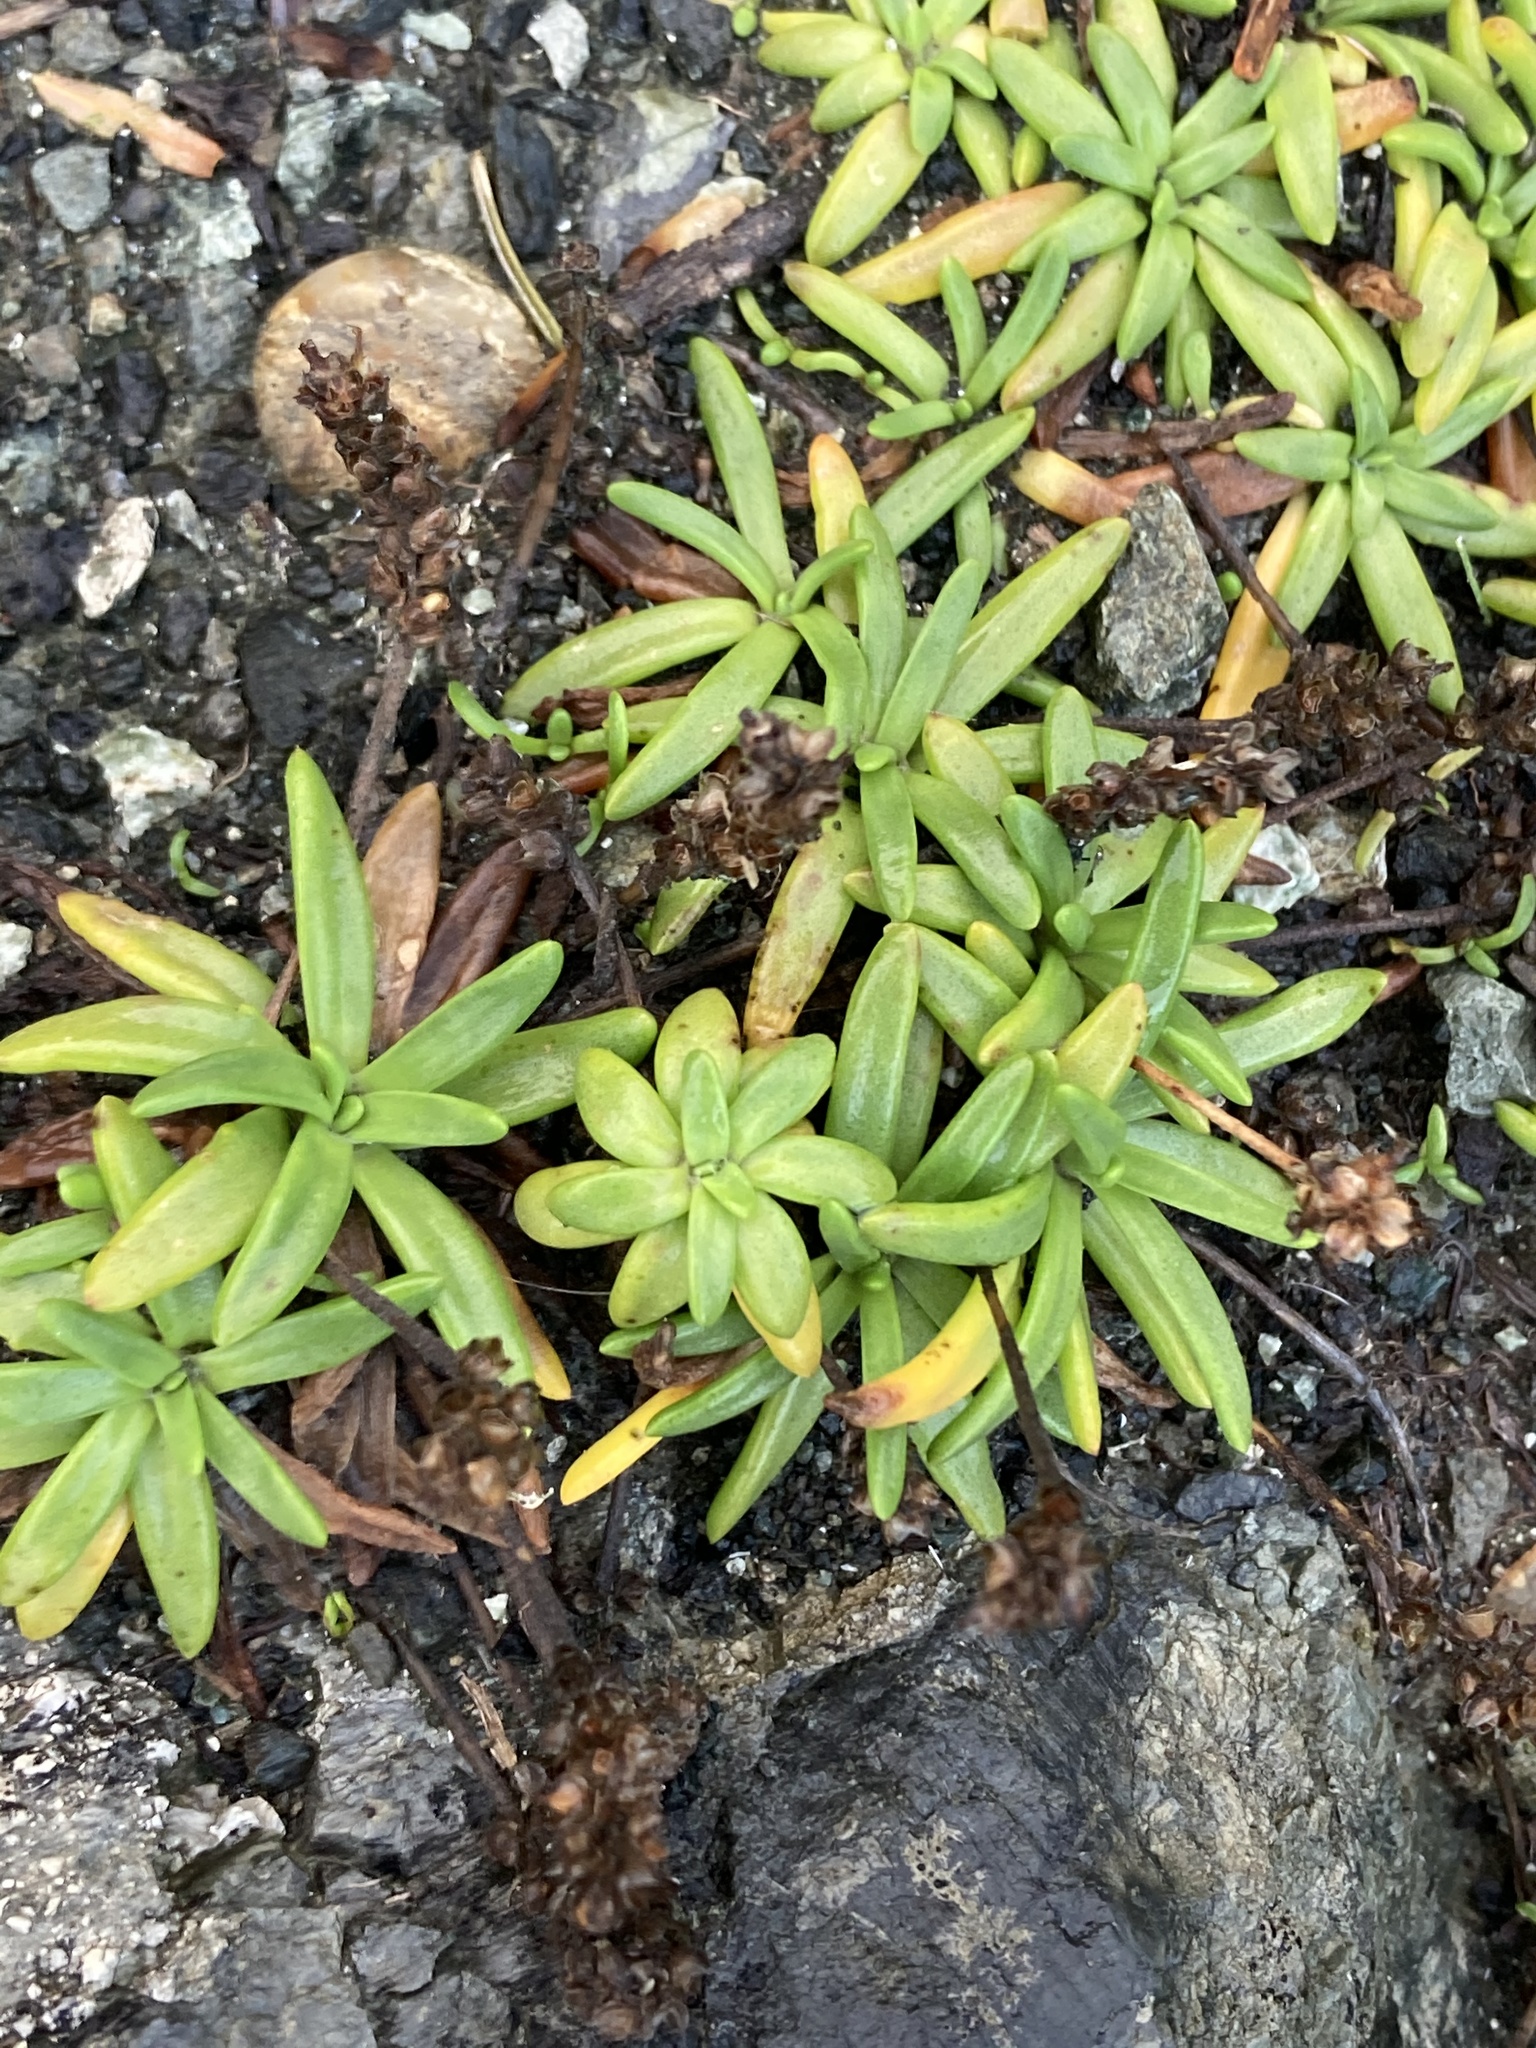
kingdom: Plantae
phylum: Tracheophyta
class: Magnoliopsida
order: Lamiales
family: Plantaginaceae
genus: Plantago
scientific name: Plantago maritima
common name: Sea plantain
